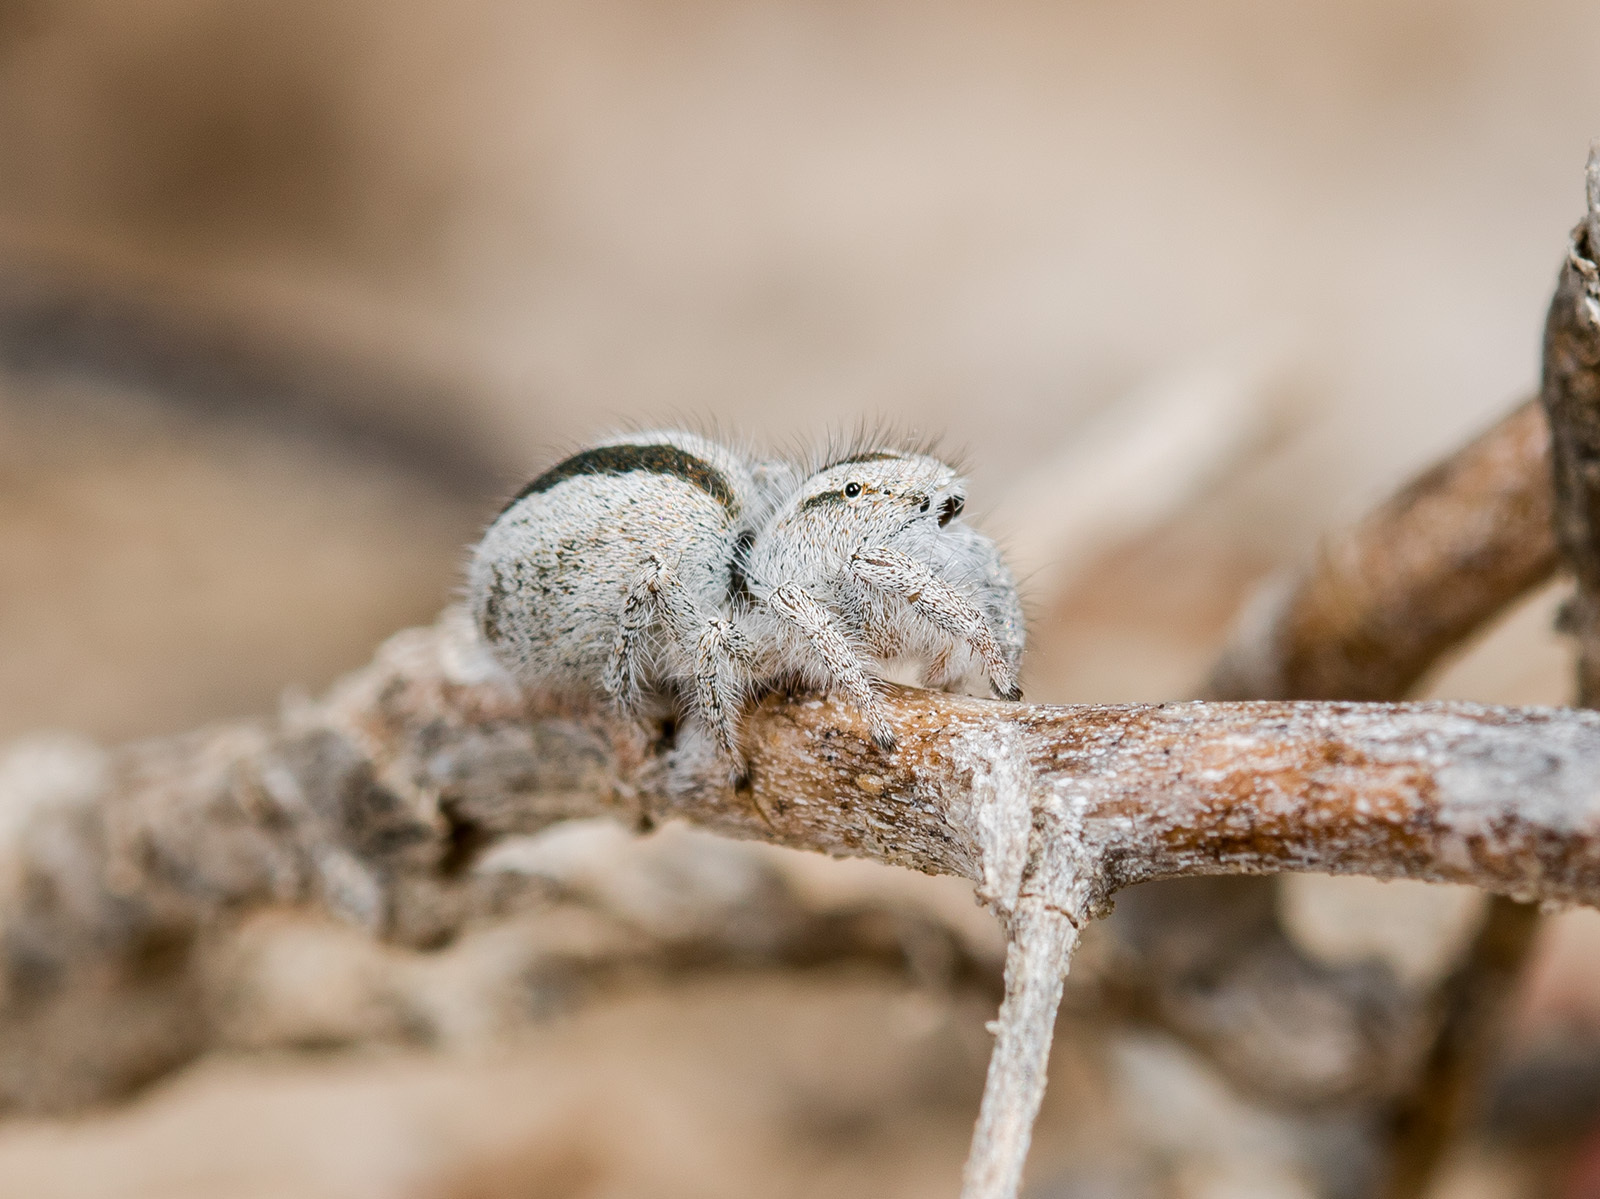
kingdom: Animalia
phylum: Arthropoda
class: Arachnida
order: Araneae
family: Salticidae
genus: Pseudomogrus
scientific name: Pseudomogrus validus
